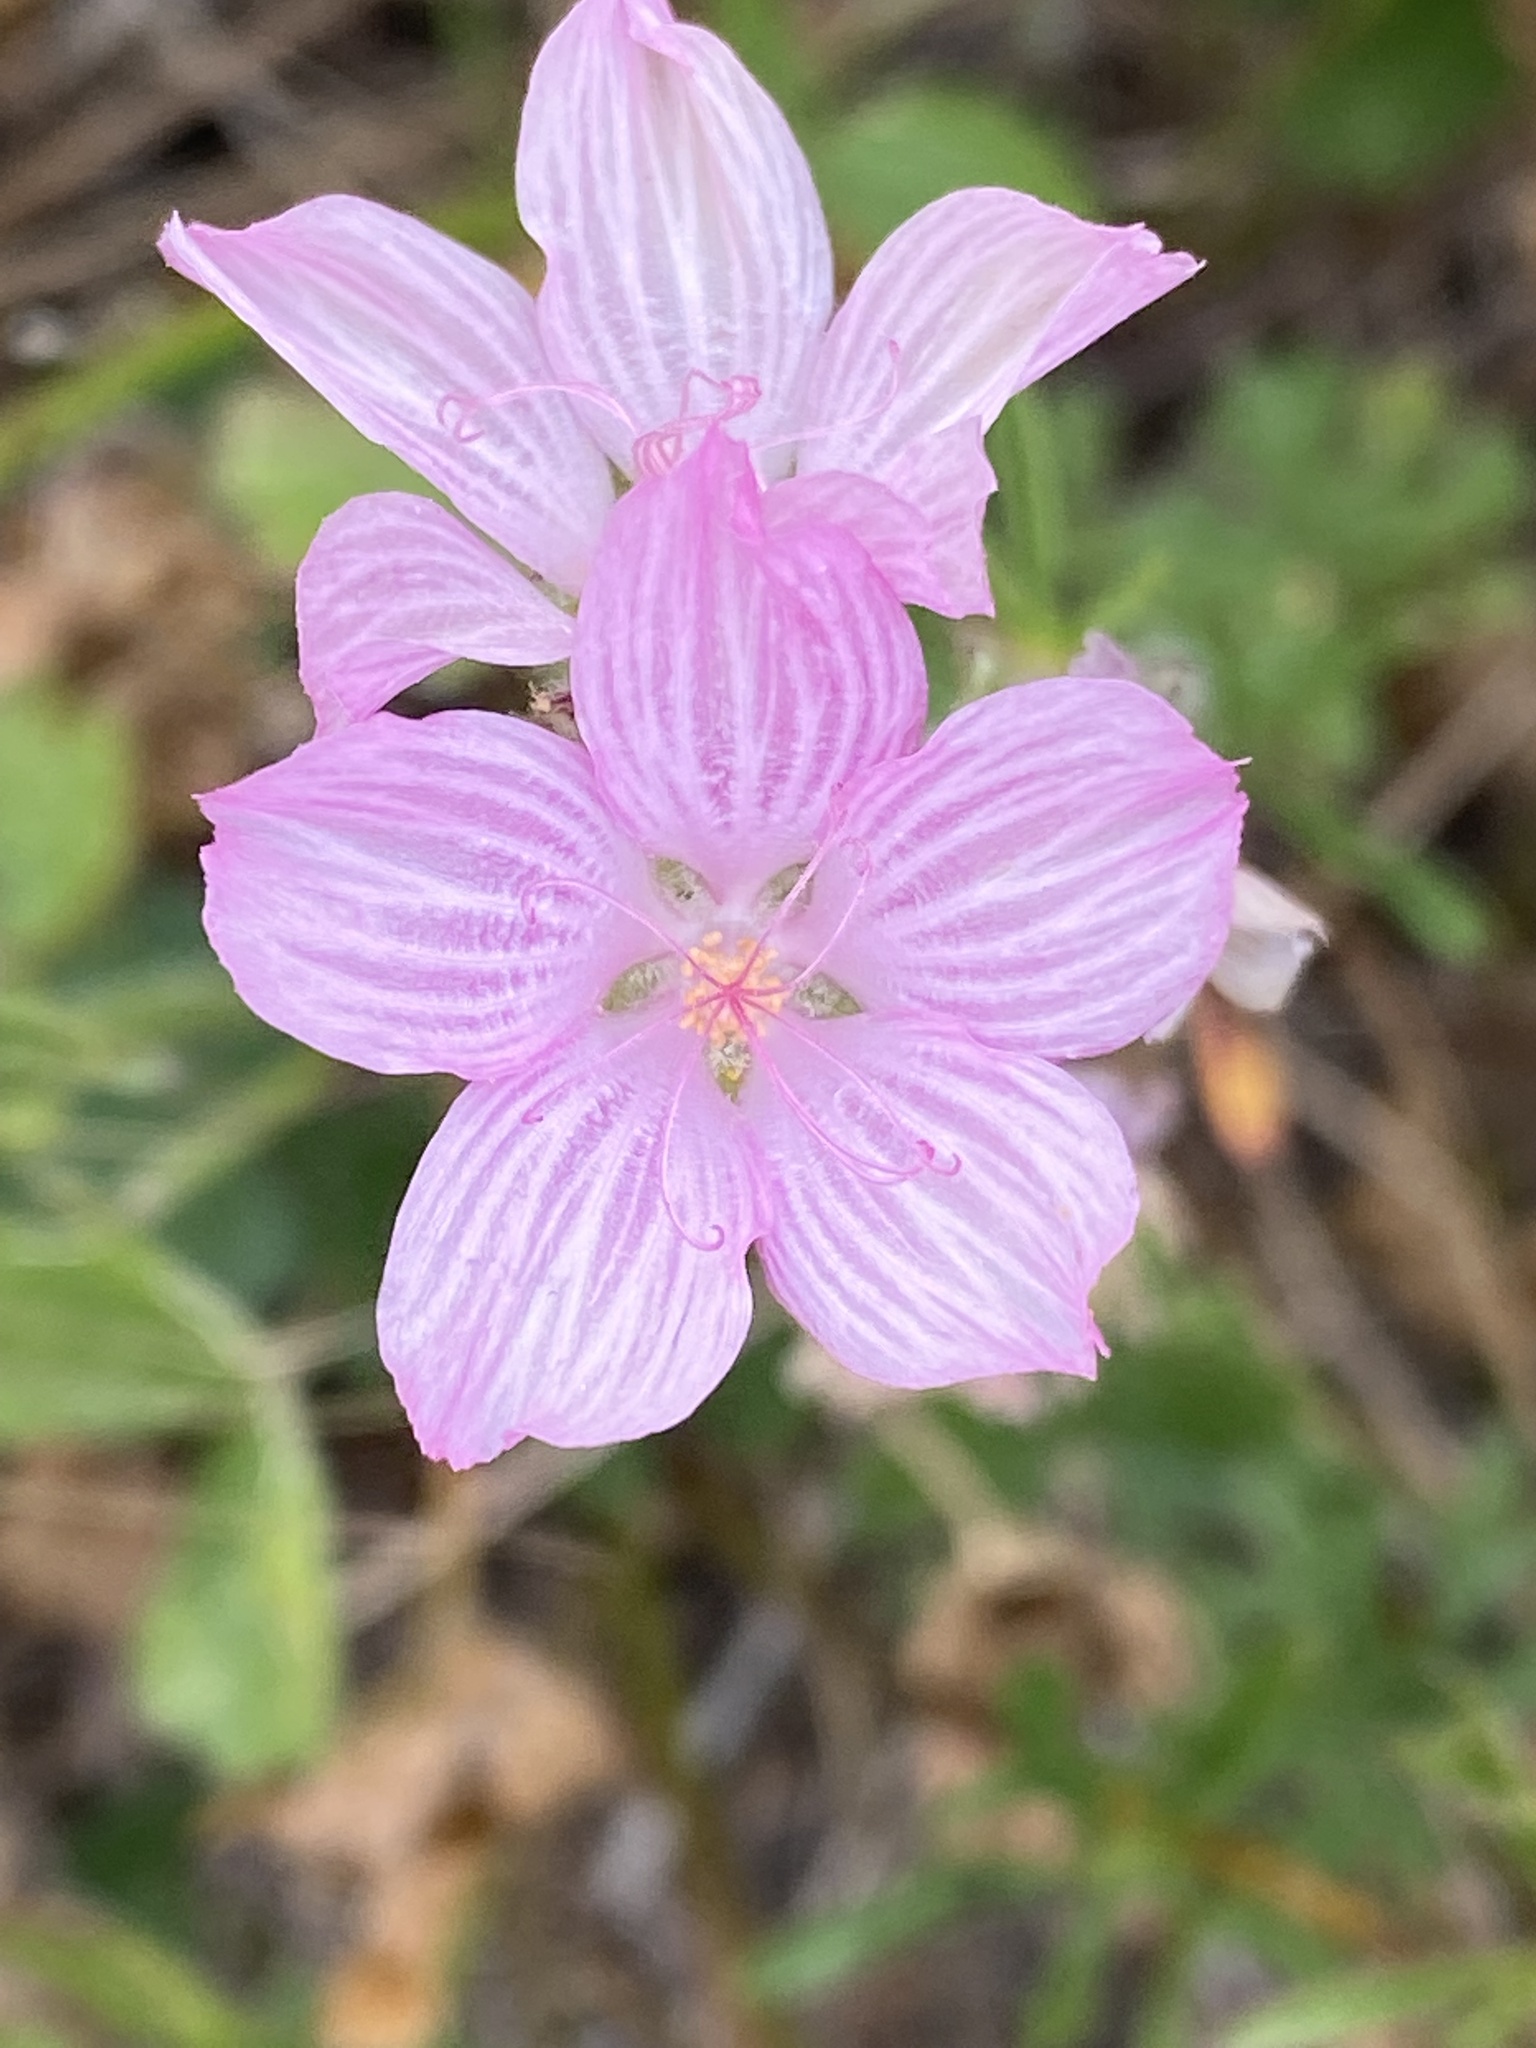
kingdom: Plantae
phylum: Tracheophyta
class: Magnoliopsida
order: Malvales
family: Malvaceae
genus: Sidalcea
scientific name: Sidalcea malviflora
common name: Greek mallow
